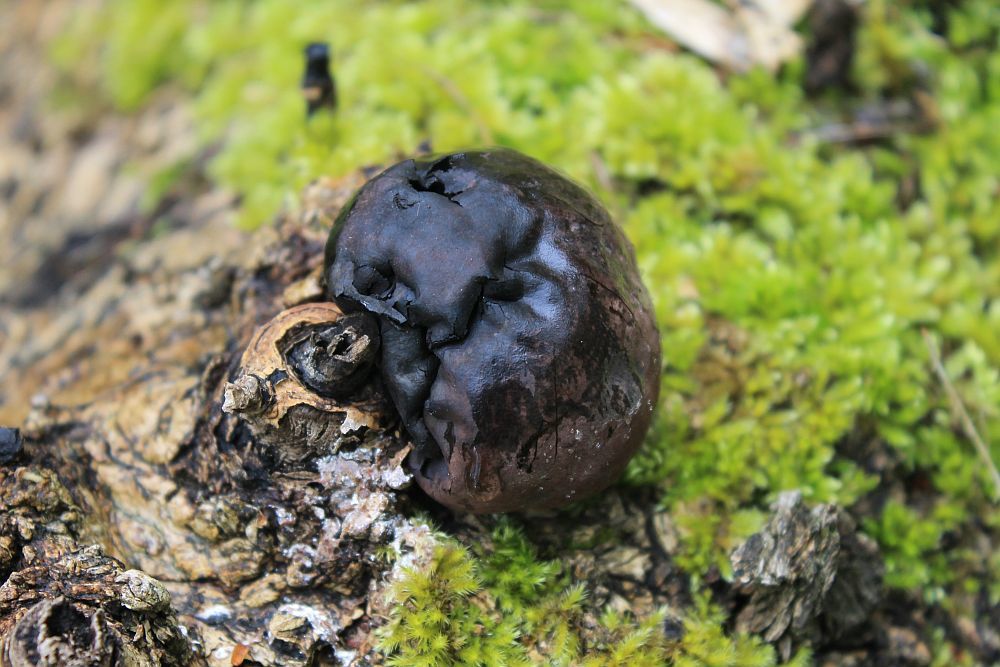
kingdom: Fungi
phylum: Ascomycota
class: Sordariomycetes
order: Xylariales
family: Hypoxylaceae
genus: Daldinia
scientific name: Daldinia concentrica
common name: Cramp balls
